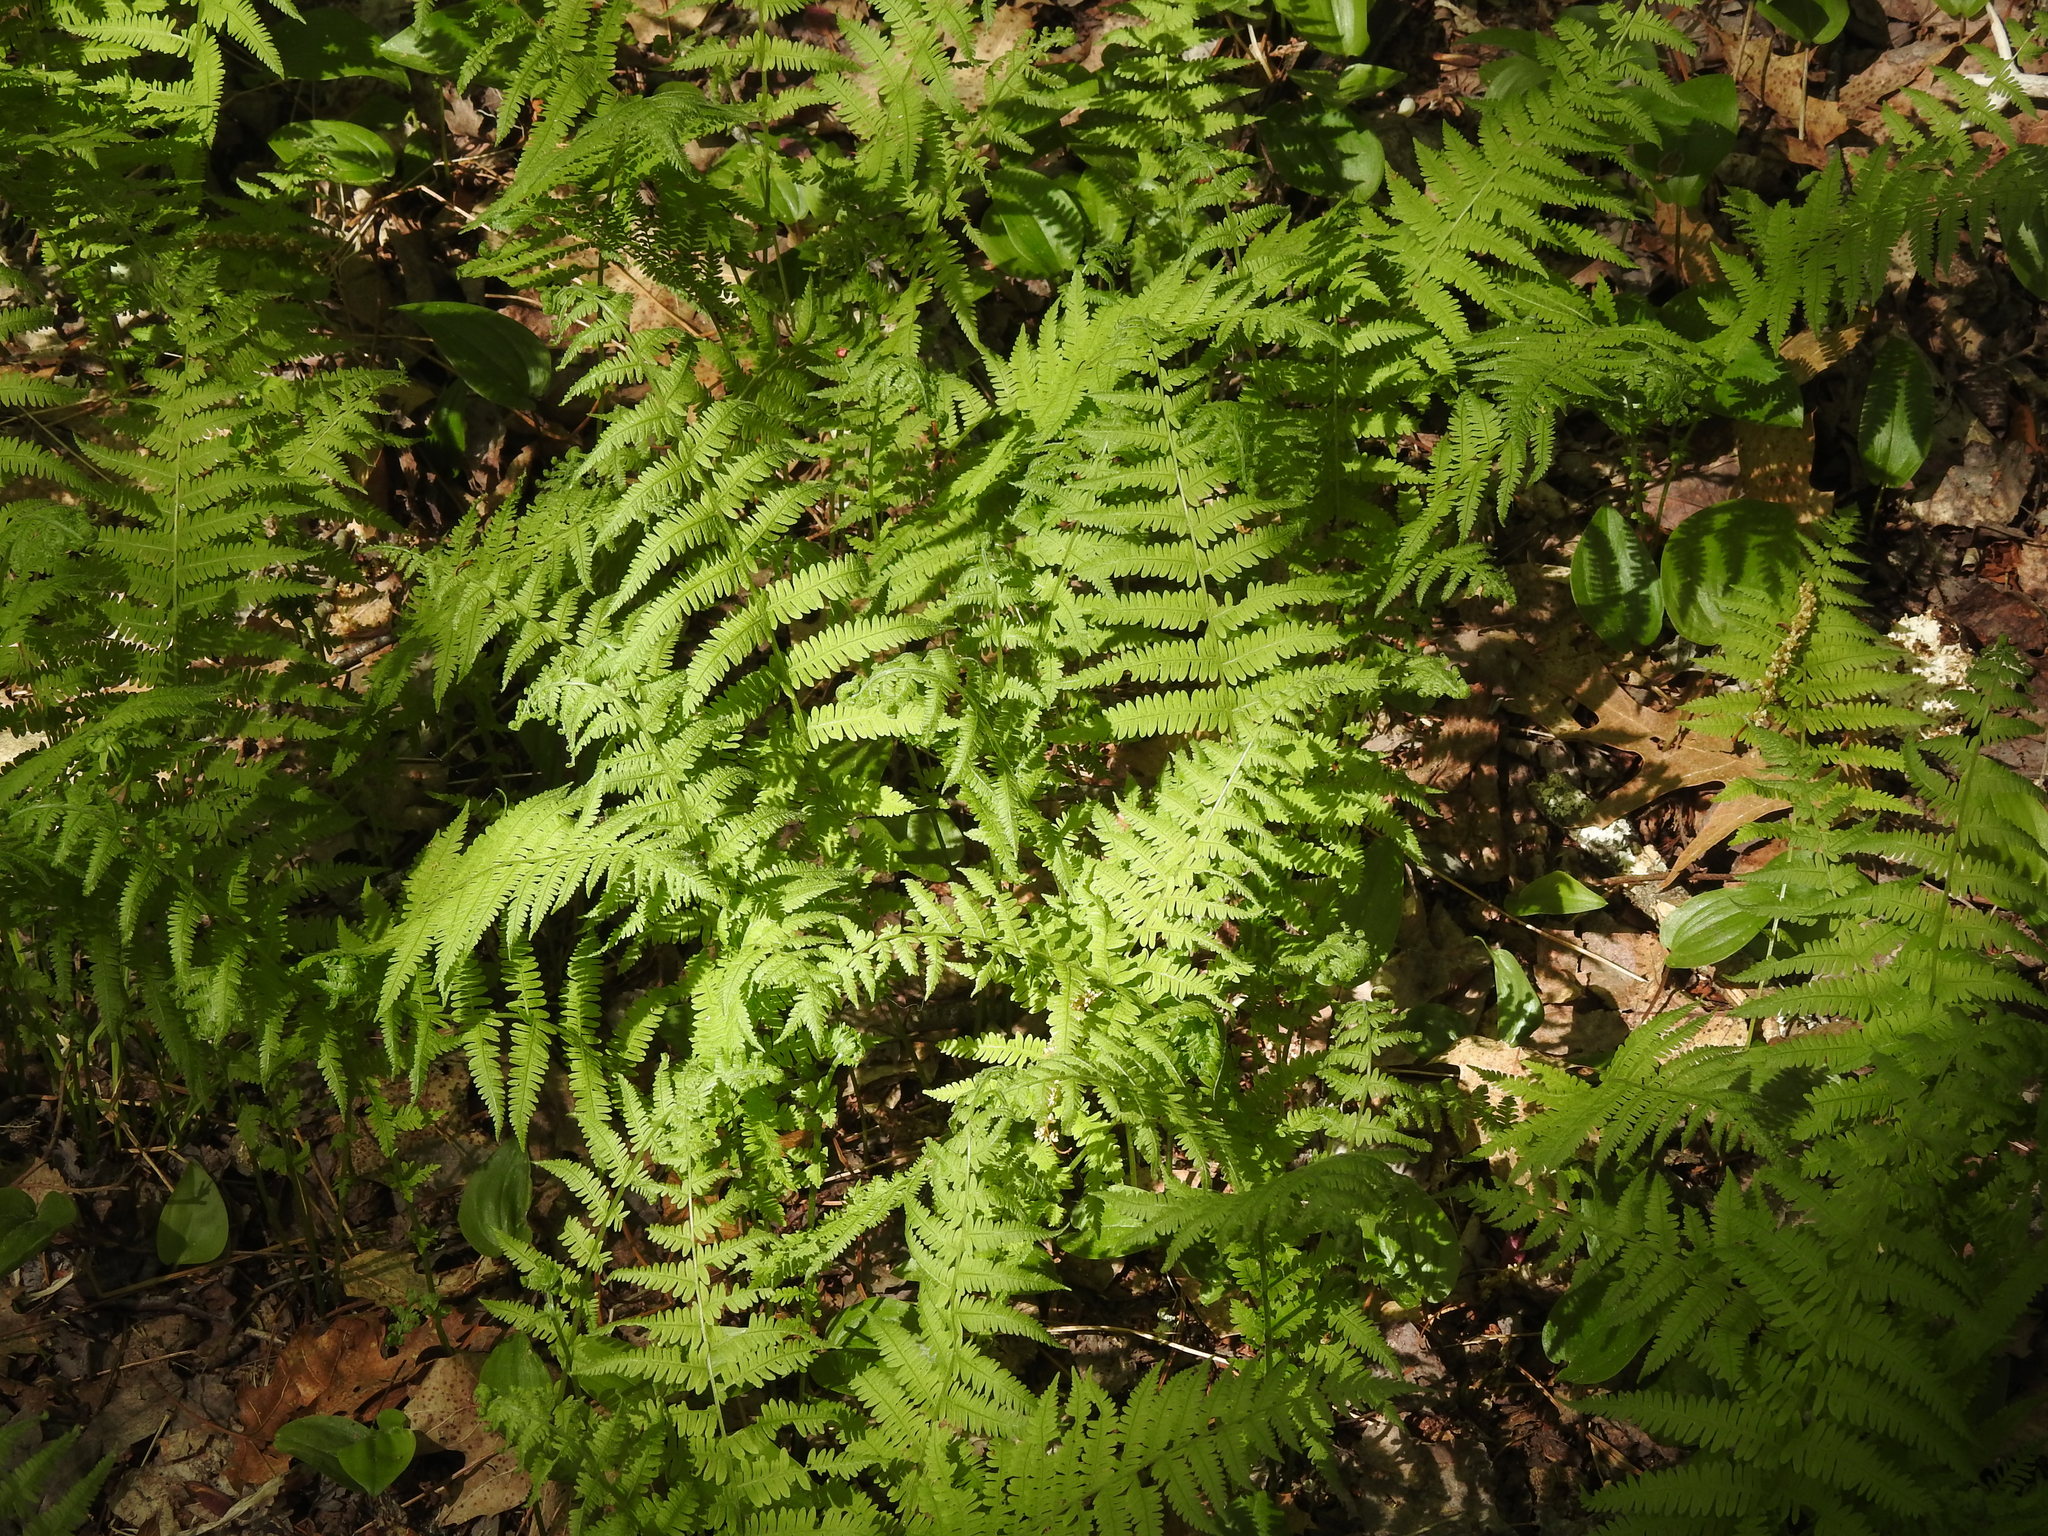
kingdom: Plantae
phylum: Tracheophyta
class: Polypodiopsida
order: Polypodiales
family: Thelypteridaceae
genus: Amauropelta
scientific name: Amauropelta noveboracensis
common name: New york fern
